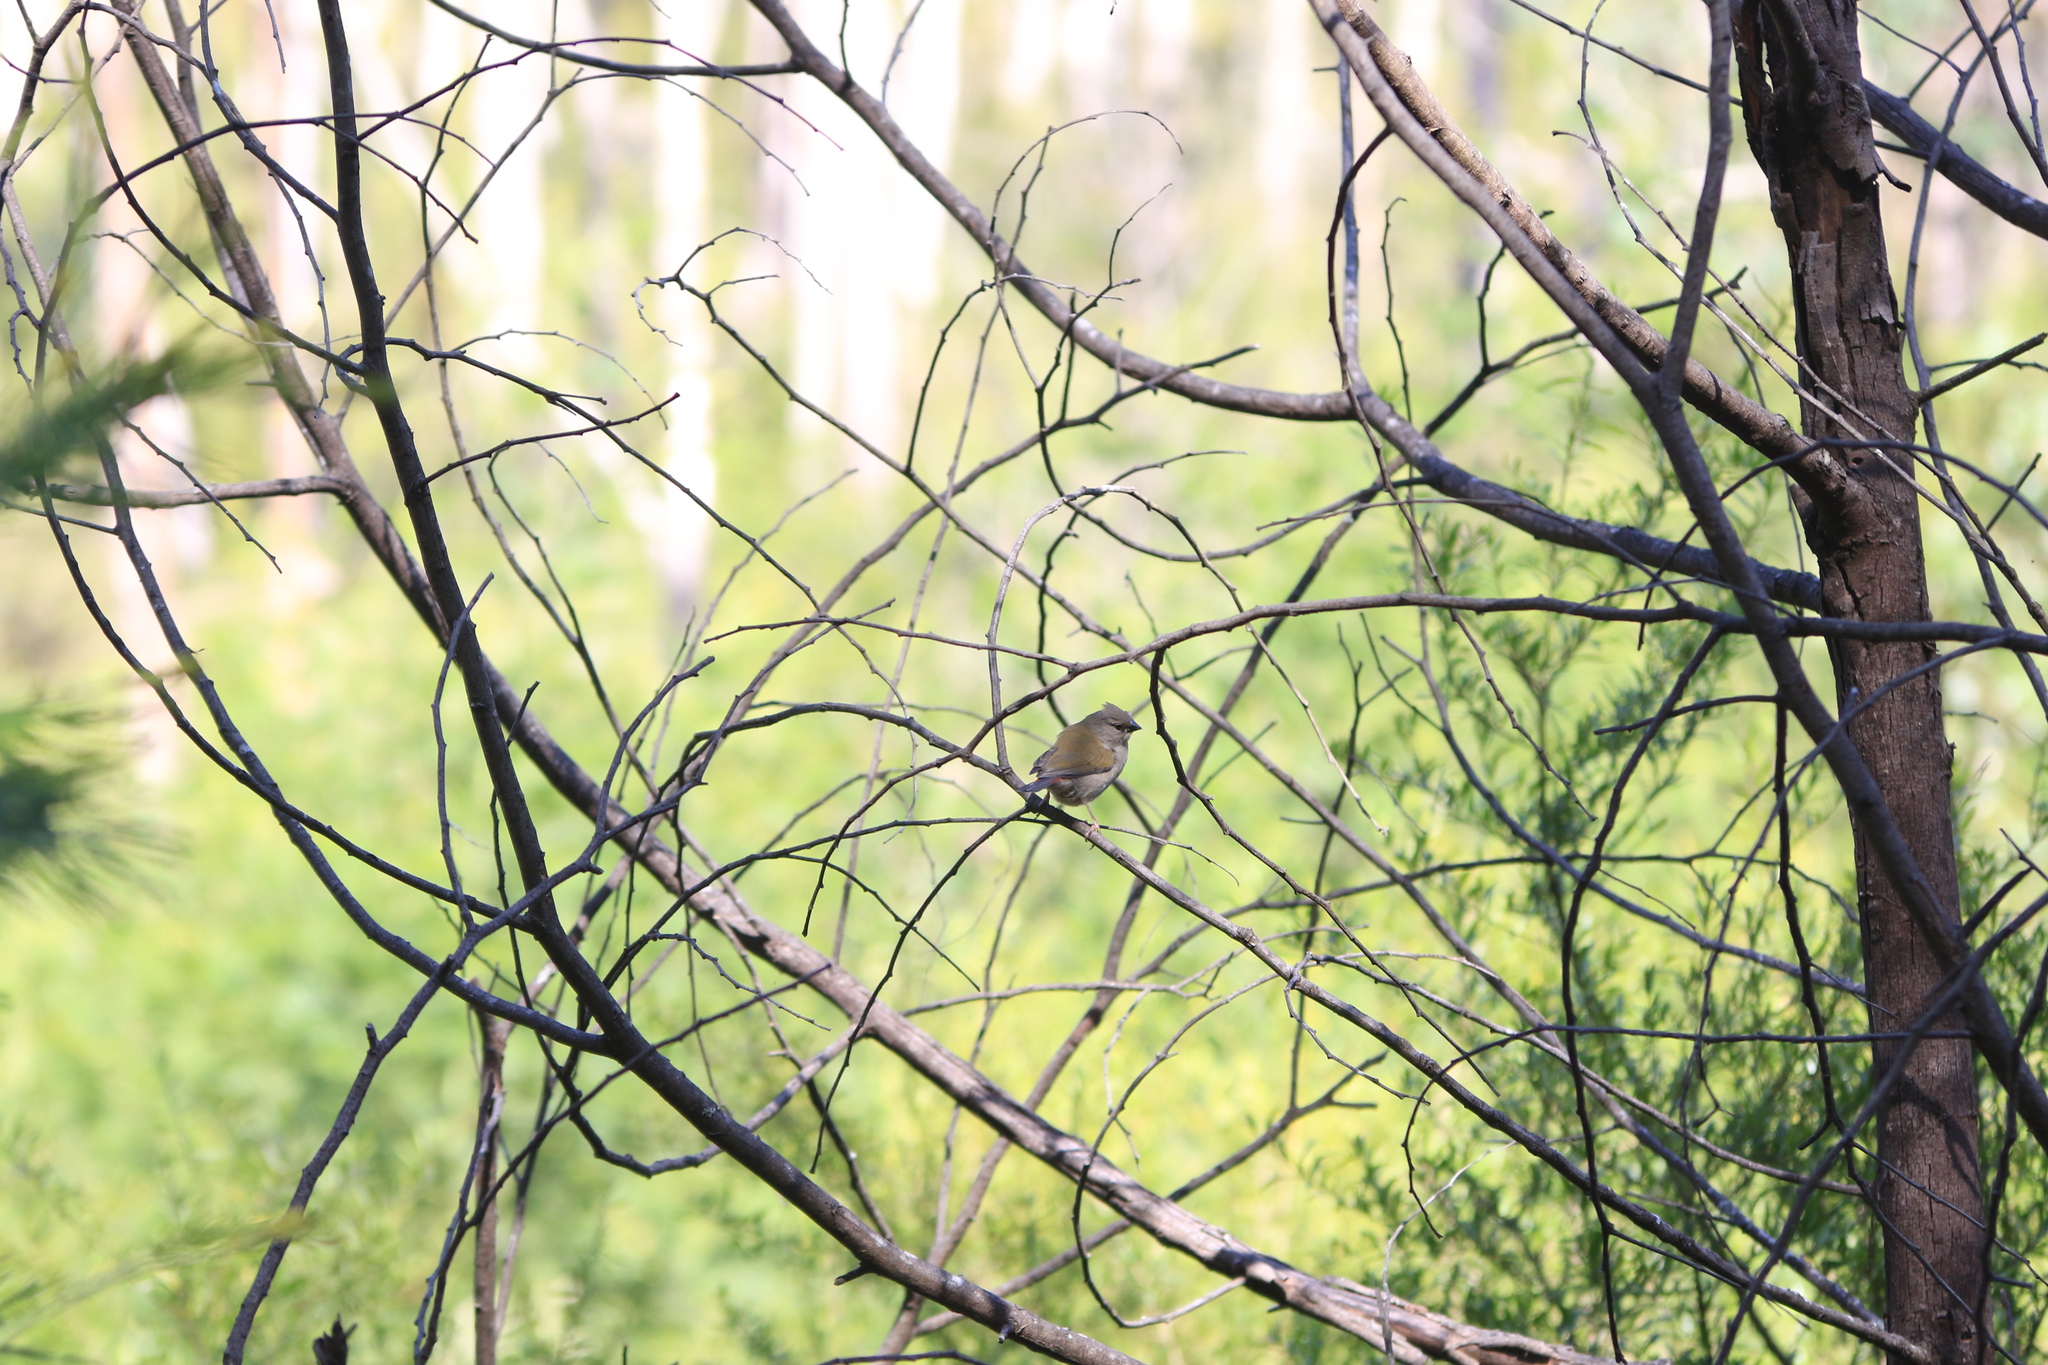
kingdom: Animalia
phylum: Chordata
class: Aves
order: Passeriformes
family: Estrildidae
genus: Neochmia
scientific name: Neochmia temporalis
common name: Red-browed finch
